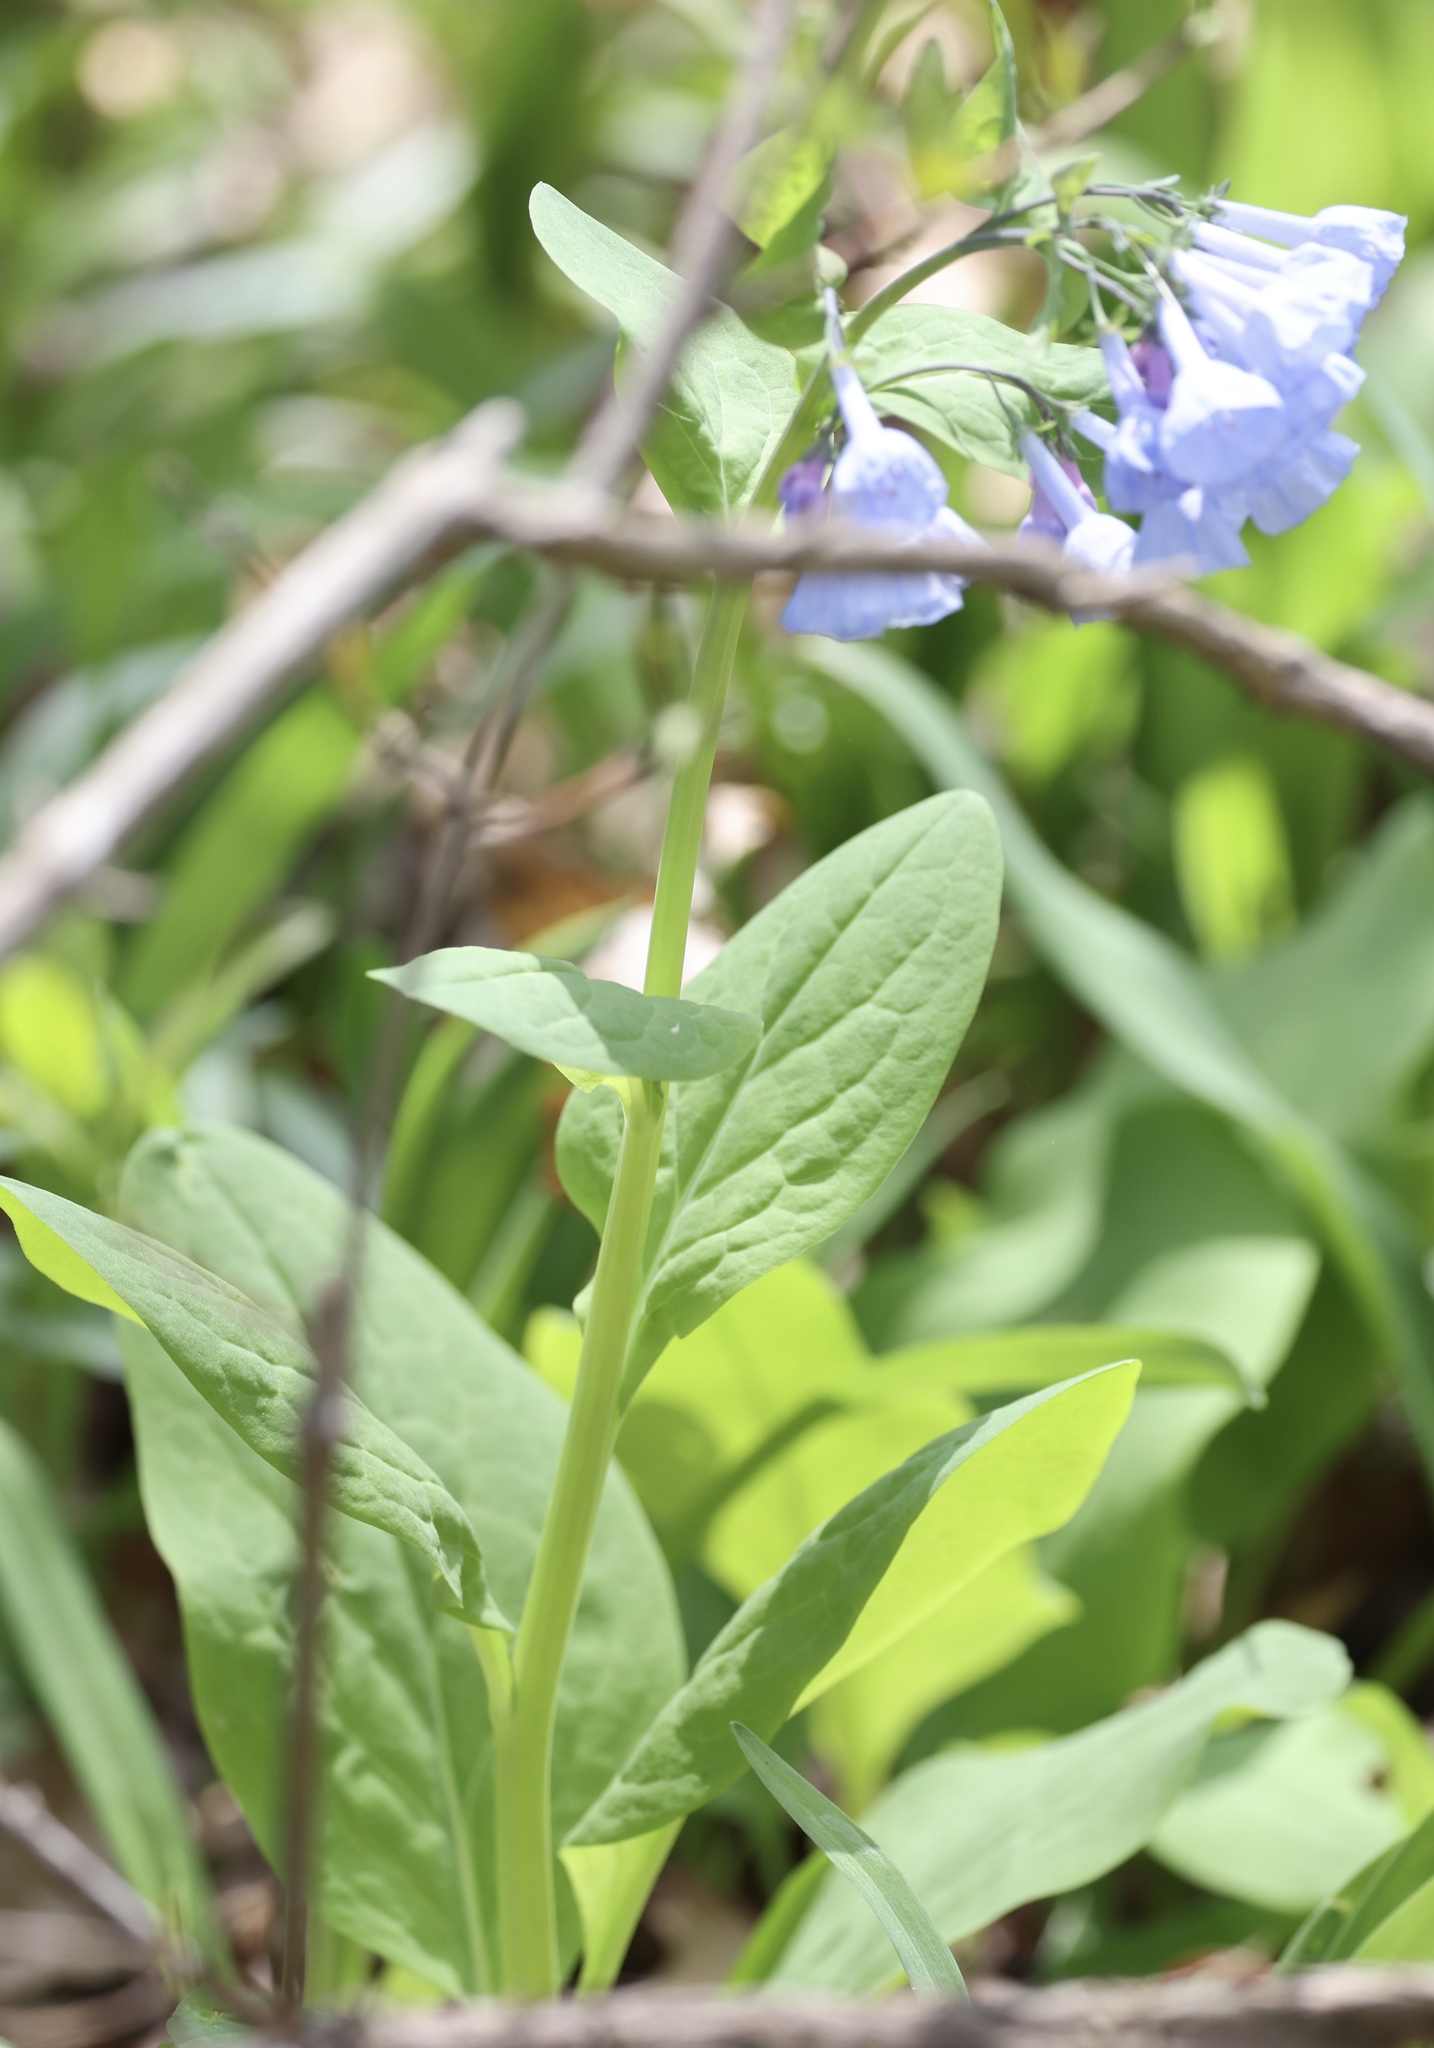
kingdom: Plantae
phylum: Tracheophyta
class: Magnoliopsida
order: Boraginales
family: Boraginaceae
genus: Mertensia
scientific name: Mertensia virginica
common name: Virginia bluebells
